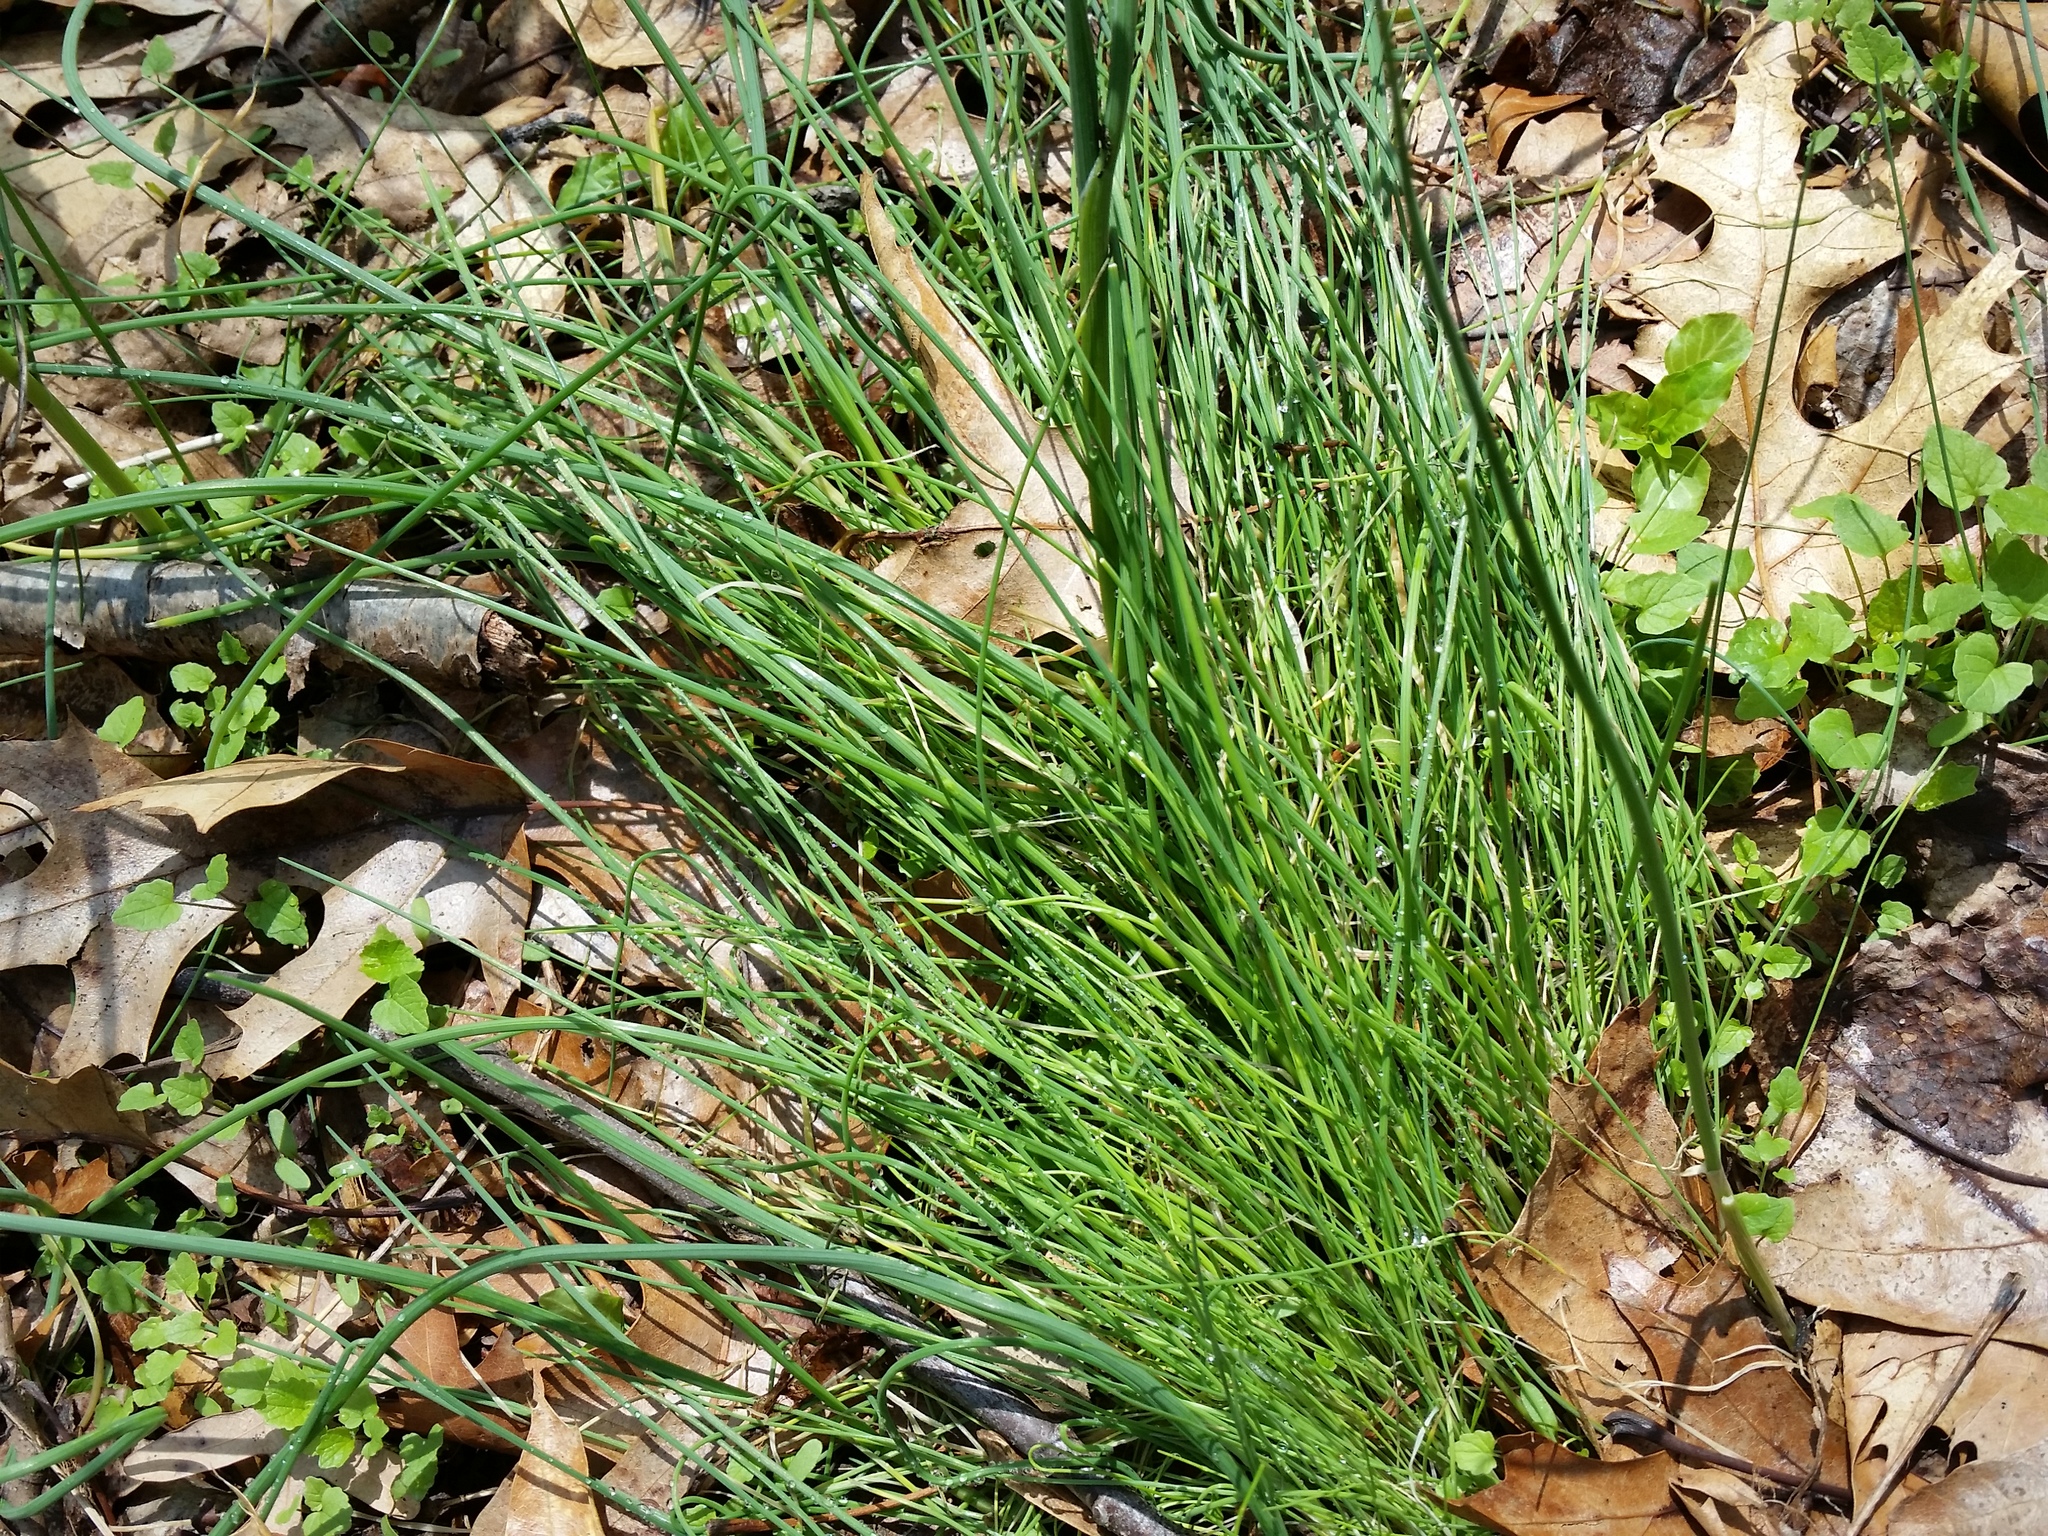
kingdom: Plantae
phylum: Tracheophyta
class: Liliopsida
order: Asparagales
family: Amaryllidaceae
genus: Allium
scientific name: Allium vineale
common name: Crow garlic
